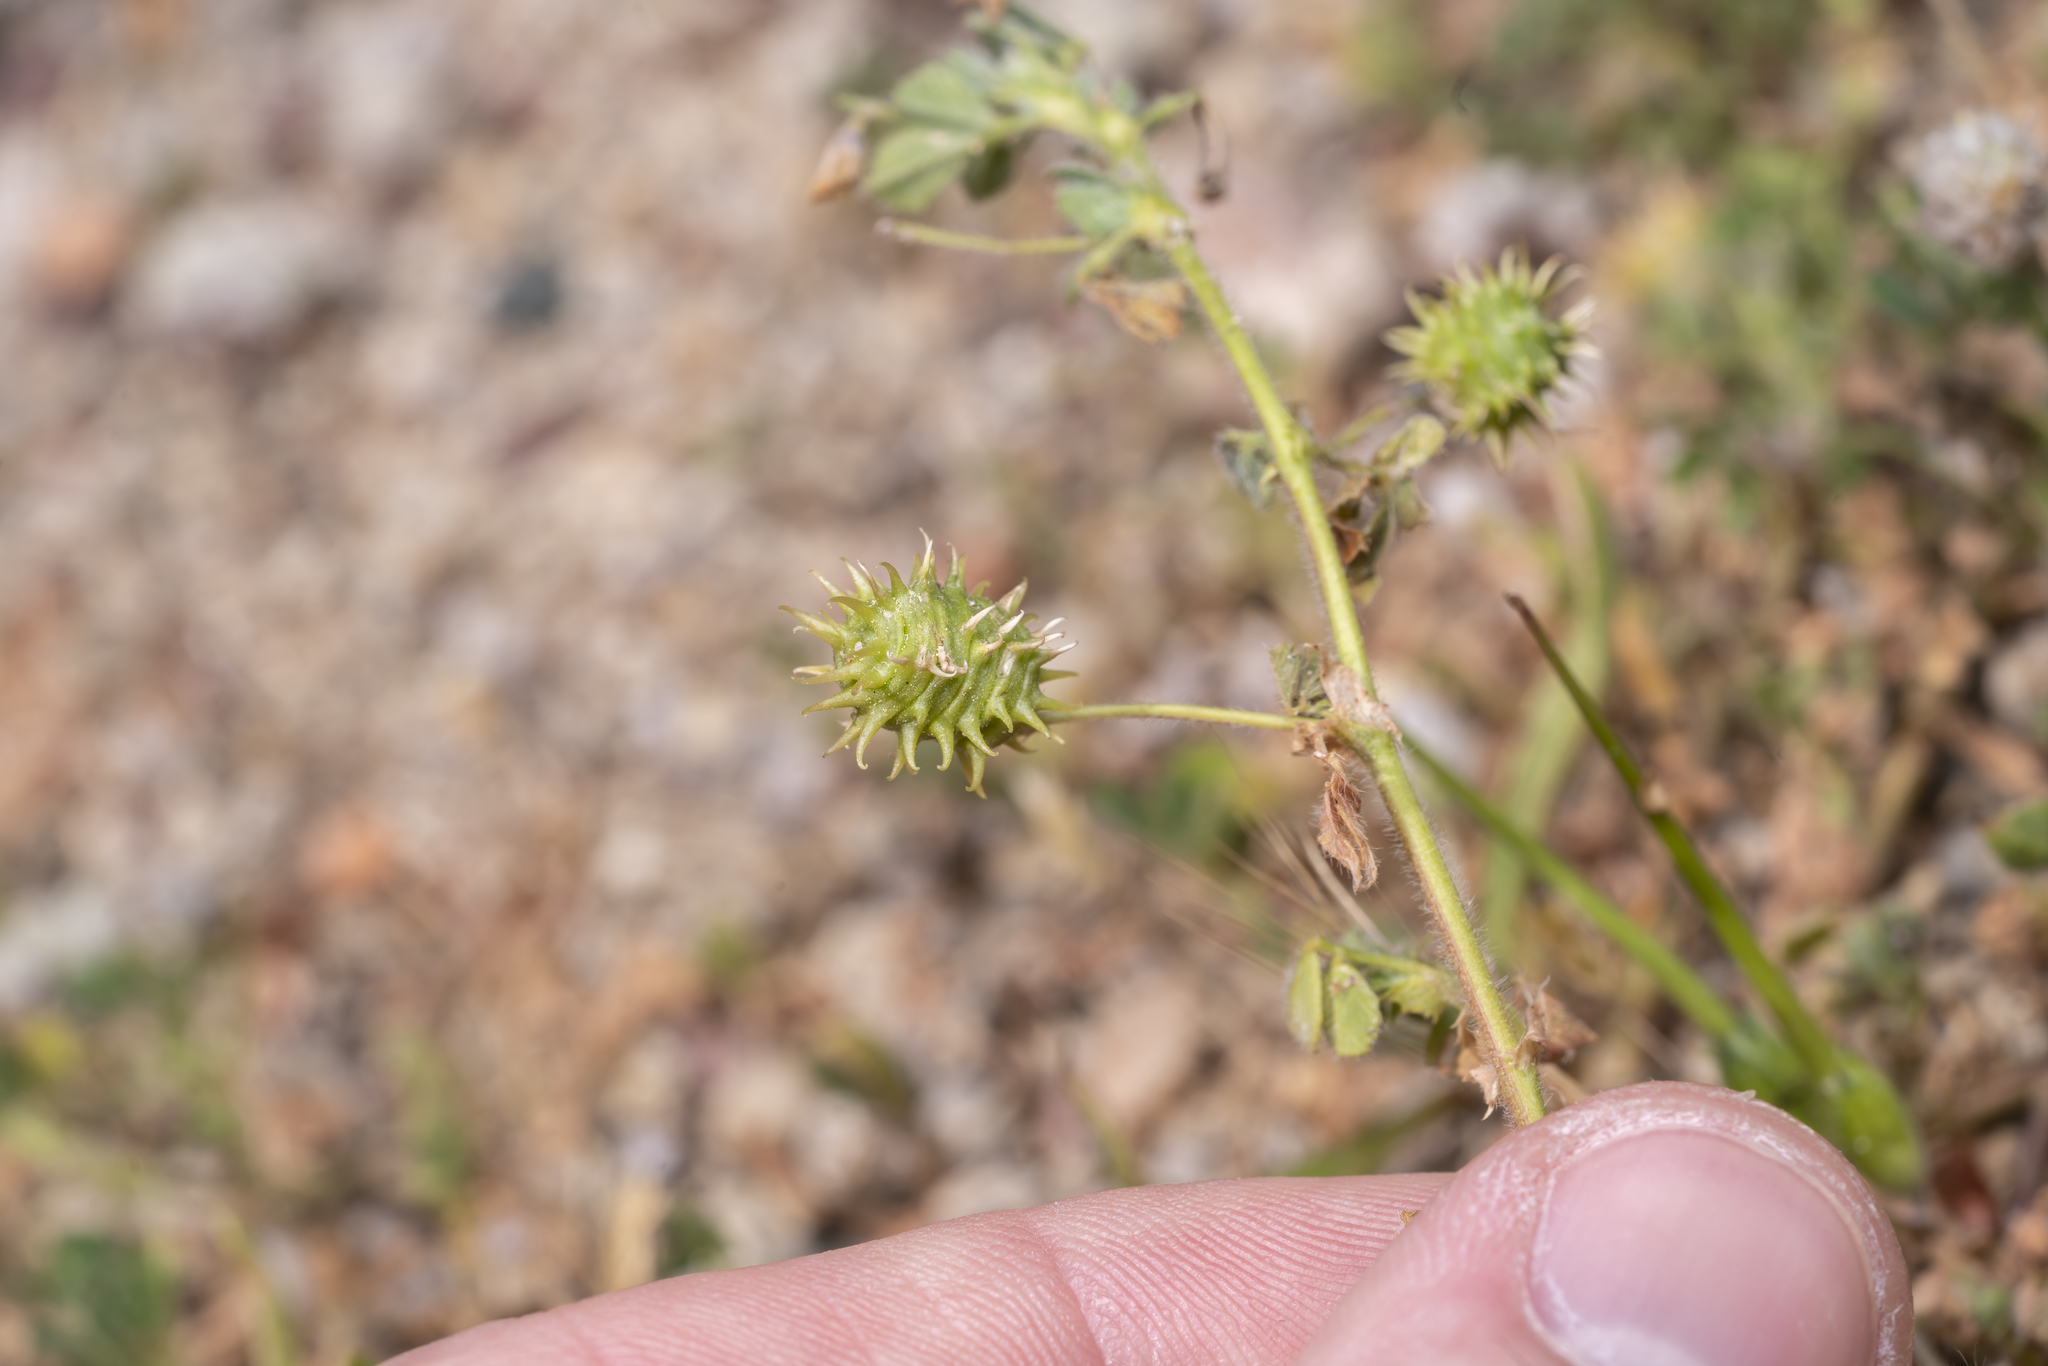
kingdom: Plantae
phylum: Tracheophyta
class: Magnoliopsida
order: Fabales
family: Fabaceae
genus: Medicago
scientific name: Medicago constricta
